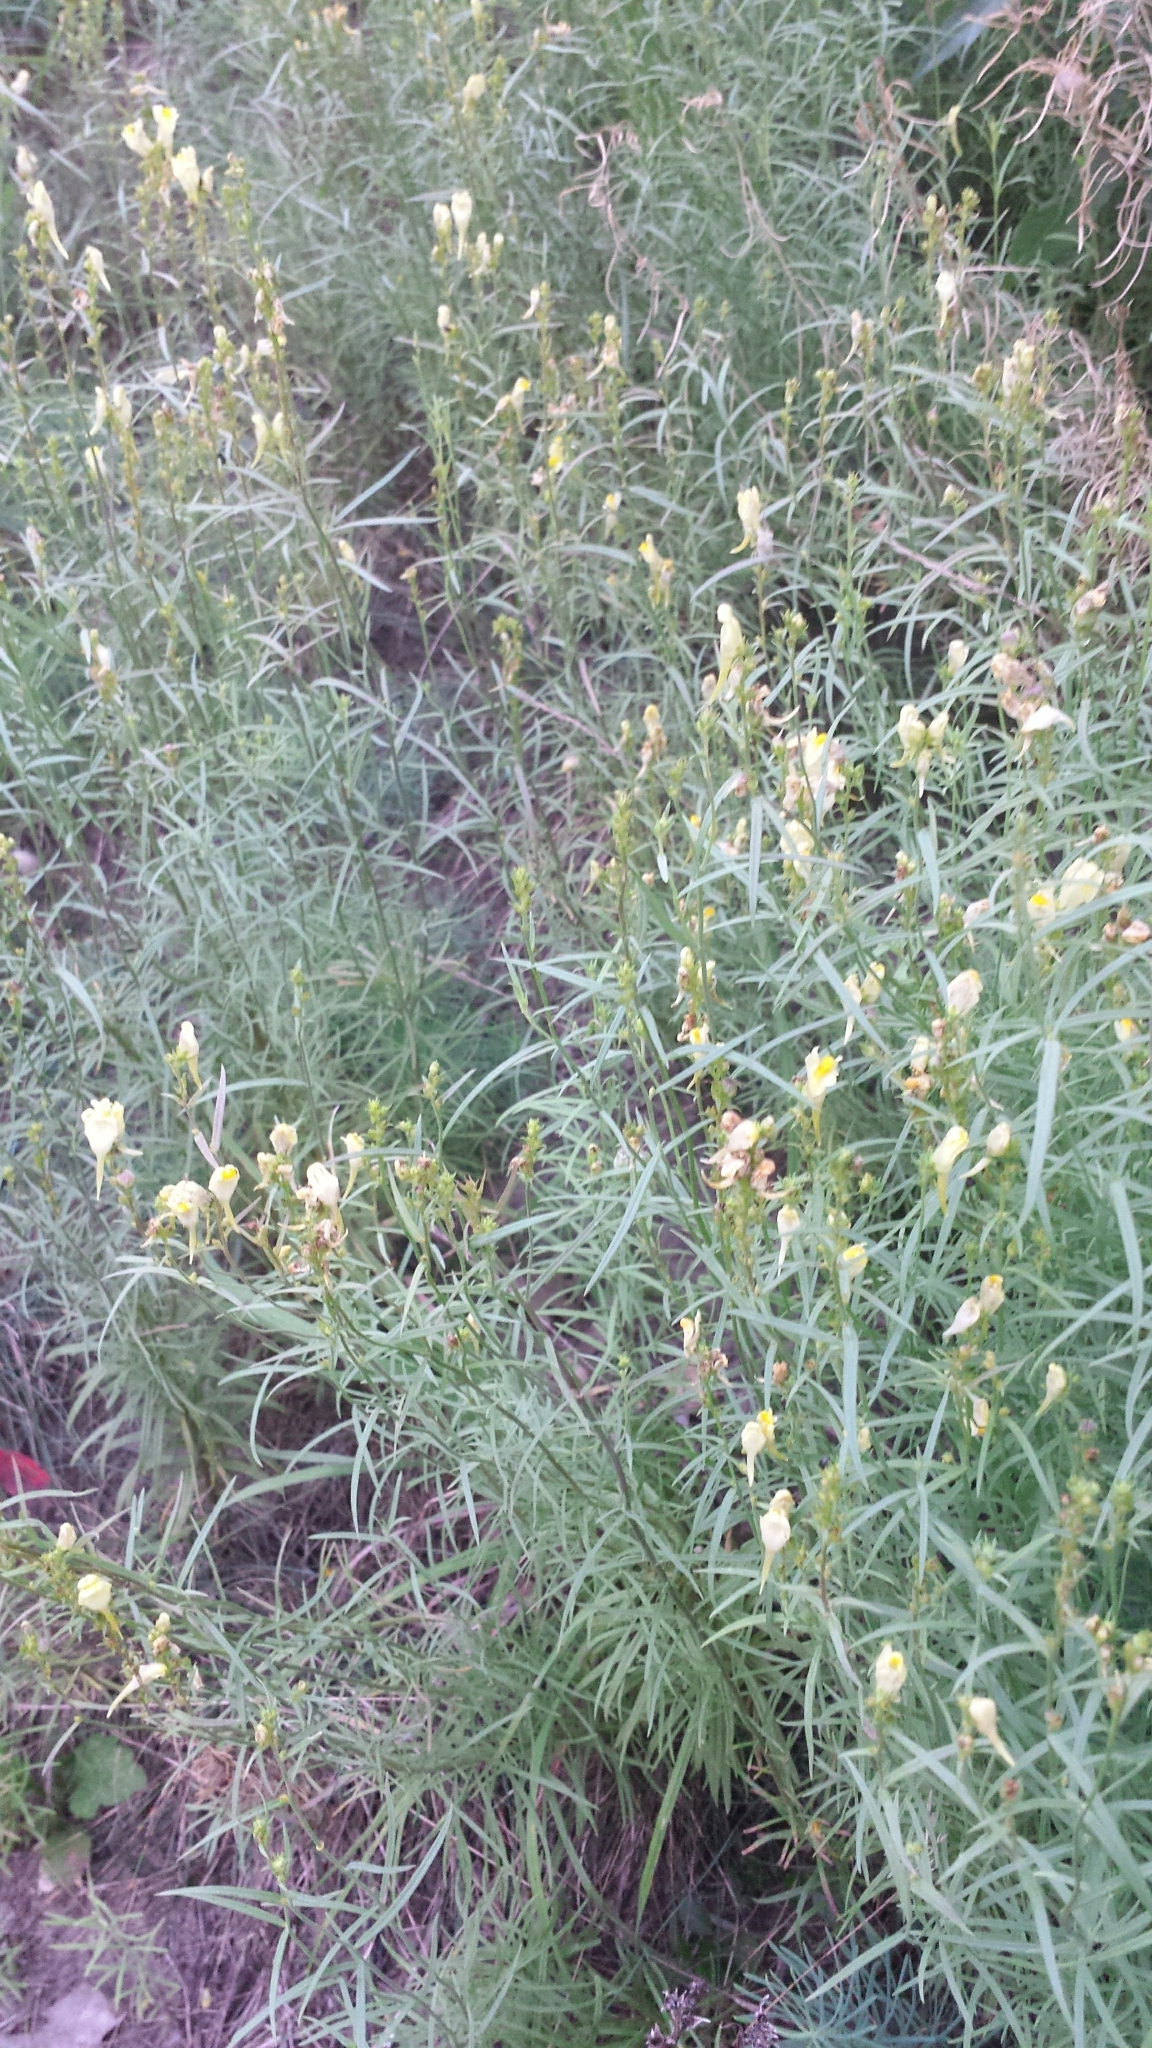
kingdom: Plantae
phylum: Tracheophyta
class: Magnoliopsida
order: Lamiales
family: Plantaginaceae
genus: Linaria
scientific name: Linaria vulgaris
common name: Butter and eggs
